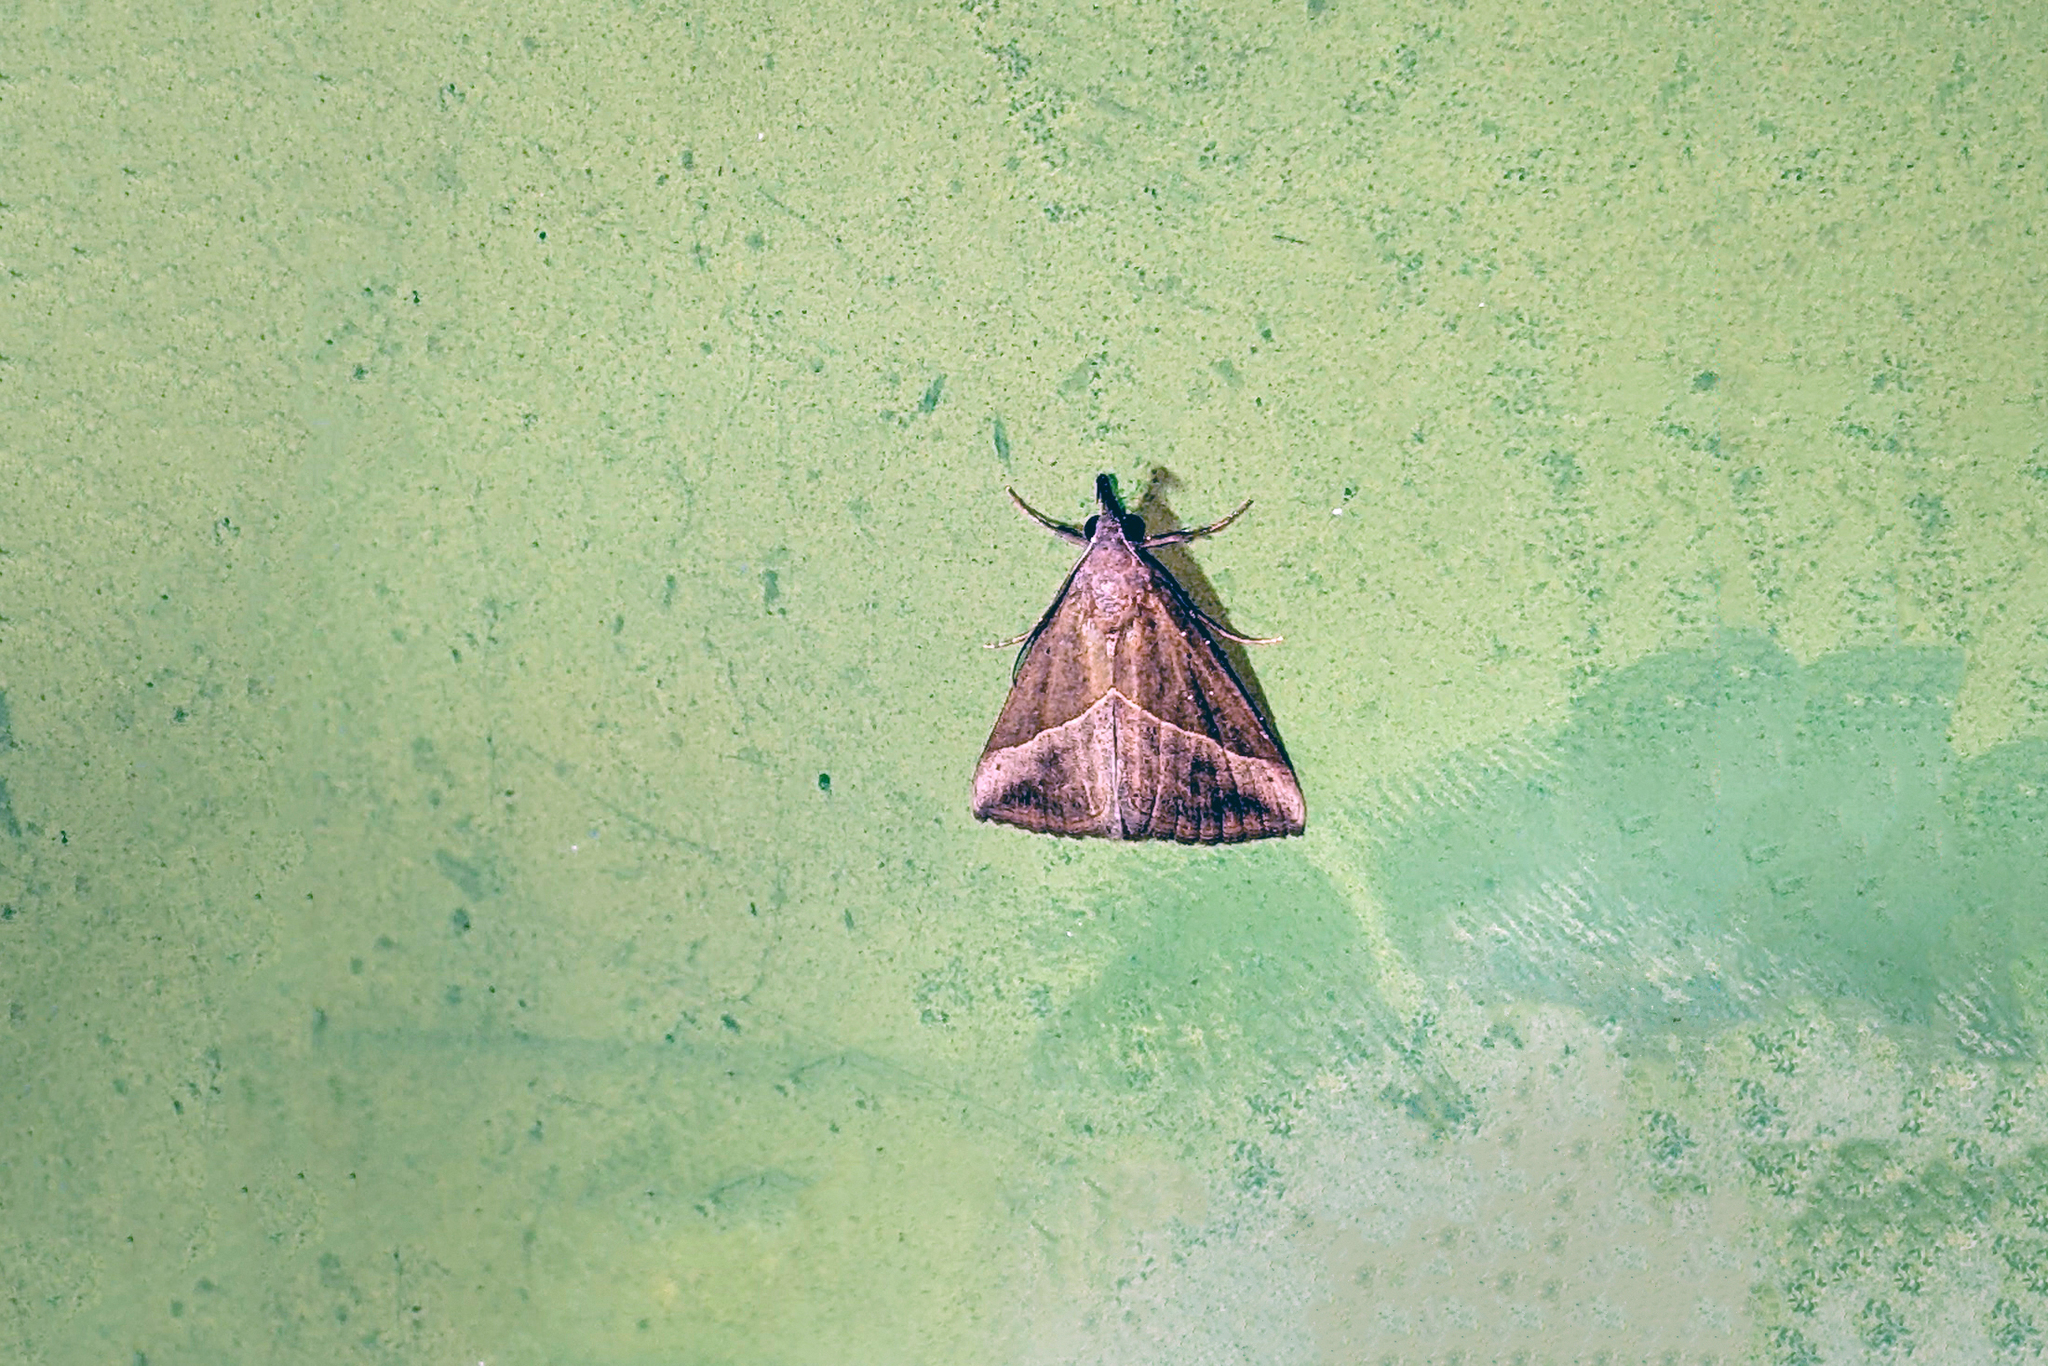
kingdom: Animalia
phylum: Arthropoda
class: Insecta
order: Lepidoptera
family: Erebidae
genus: Hypena
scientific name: Hypena lividalis
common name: Chevron snout
